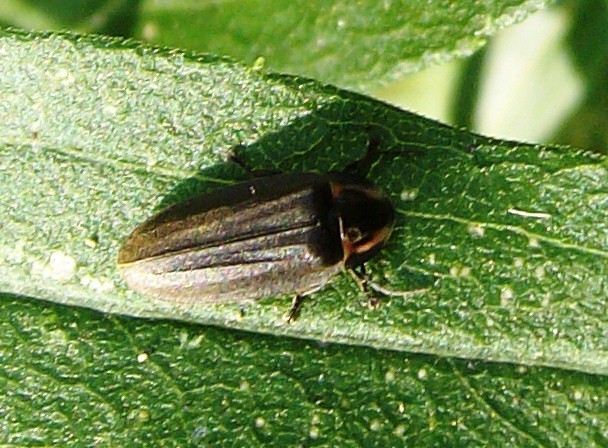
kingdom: Animalia
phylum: Arthropoda
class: Insecta
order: Coleoptera
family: Lampyridae
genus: Photinus
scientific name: Photinus corrusca
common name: Winter firefly
